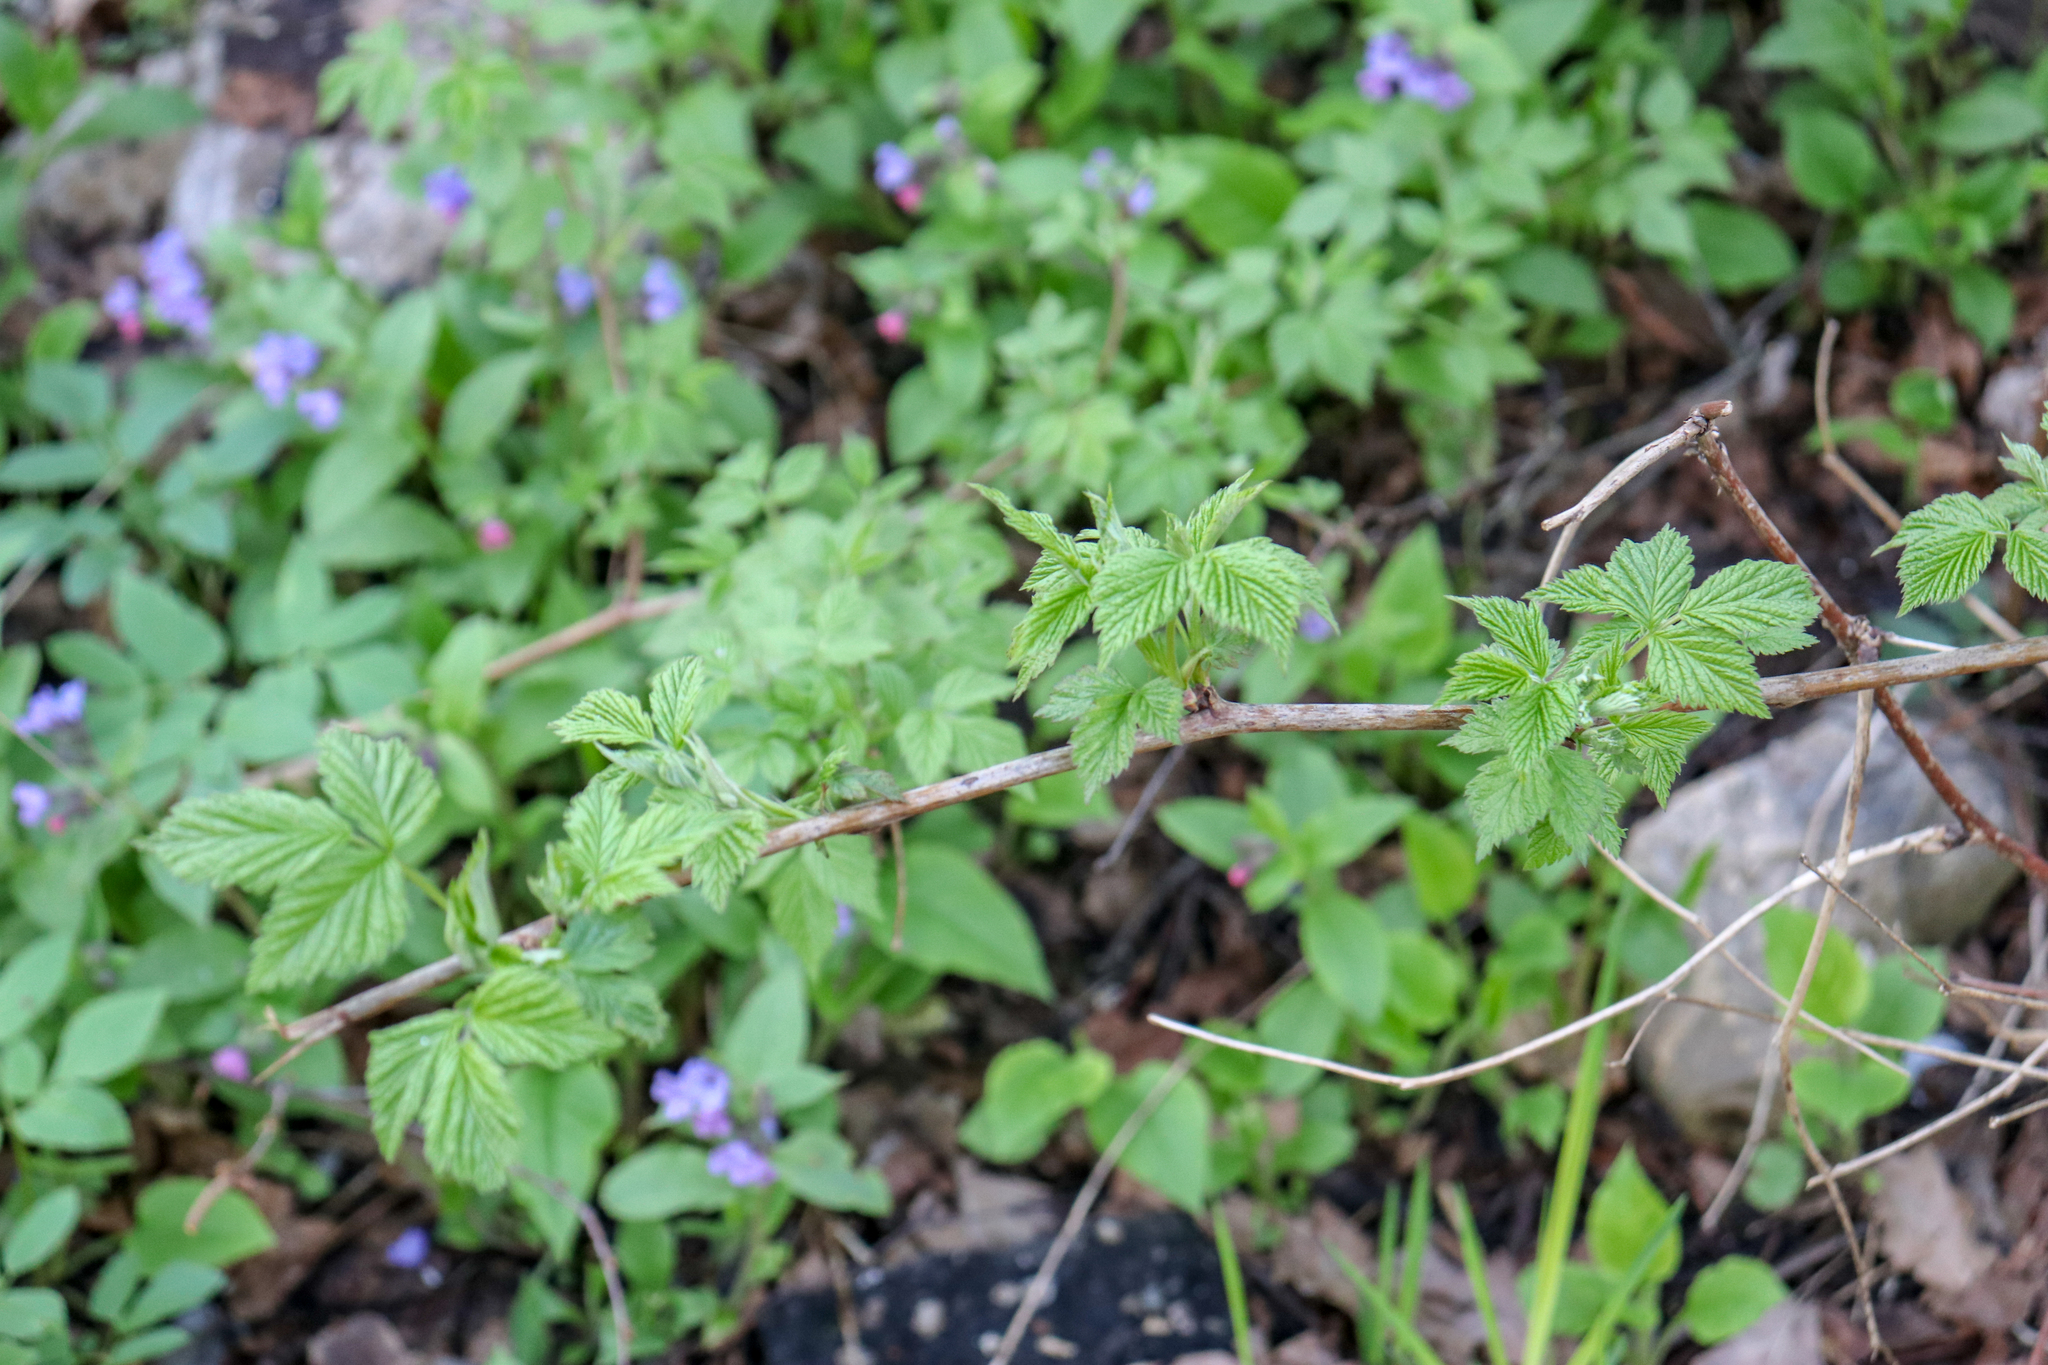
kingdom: Plantae
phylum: Tracheophyta
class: Magnoliopsida
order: Rosales
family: Rosaceae
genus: Rubus
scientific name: Rubus idaeus
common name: Raspberry
